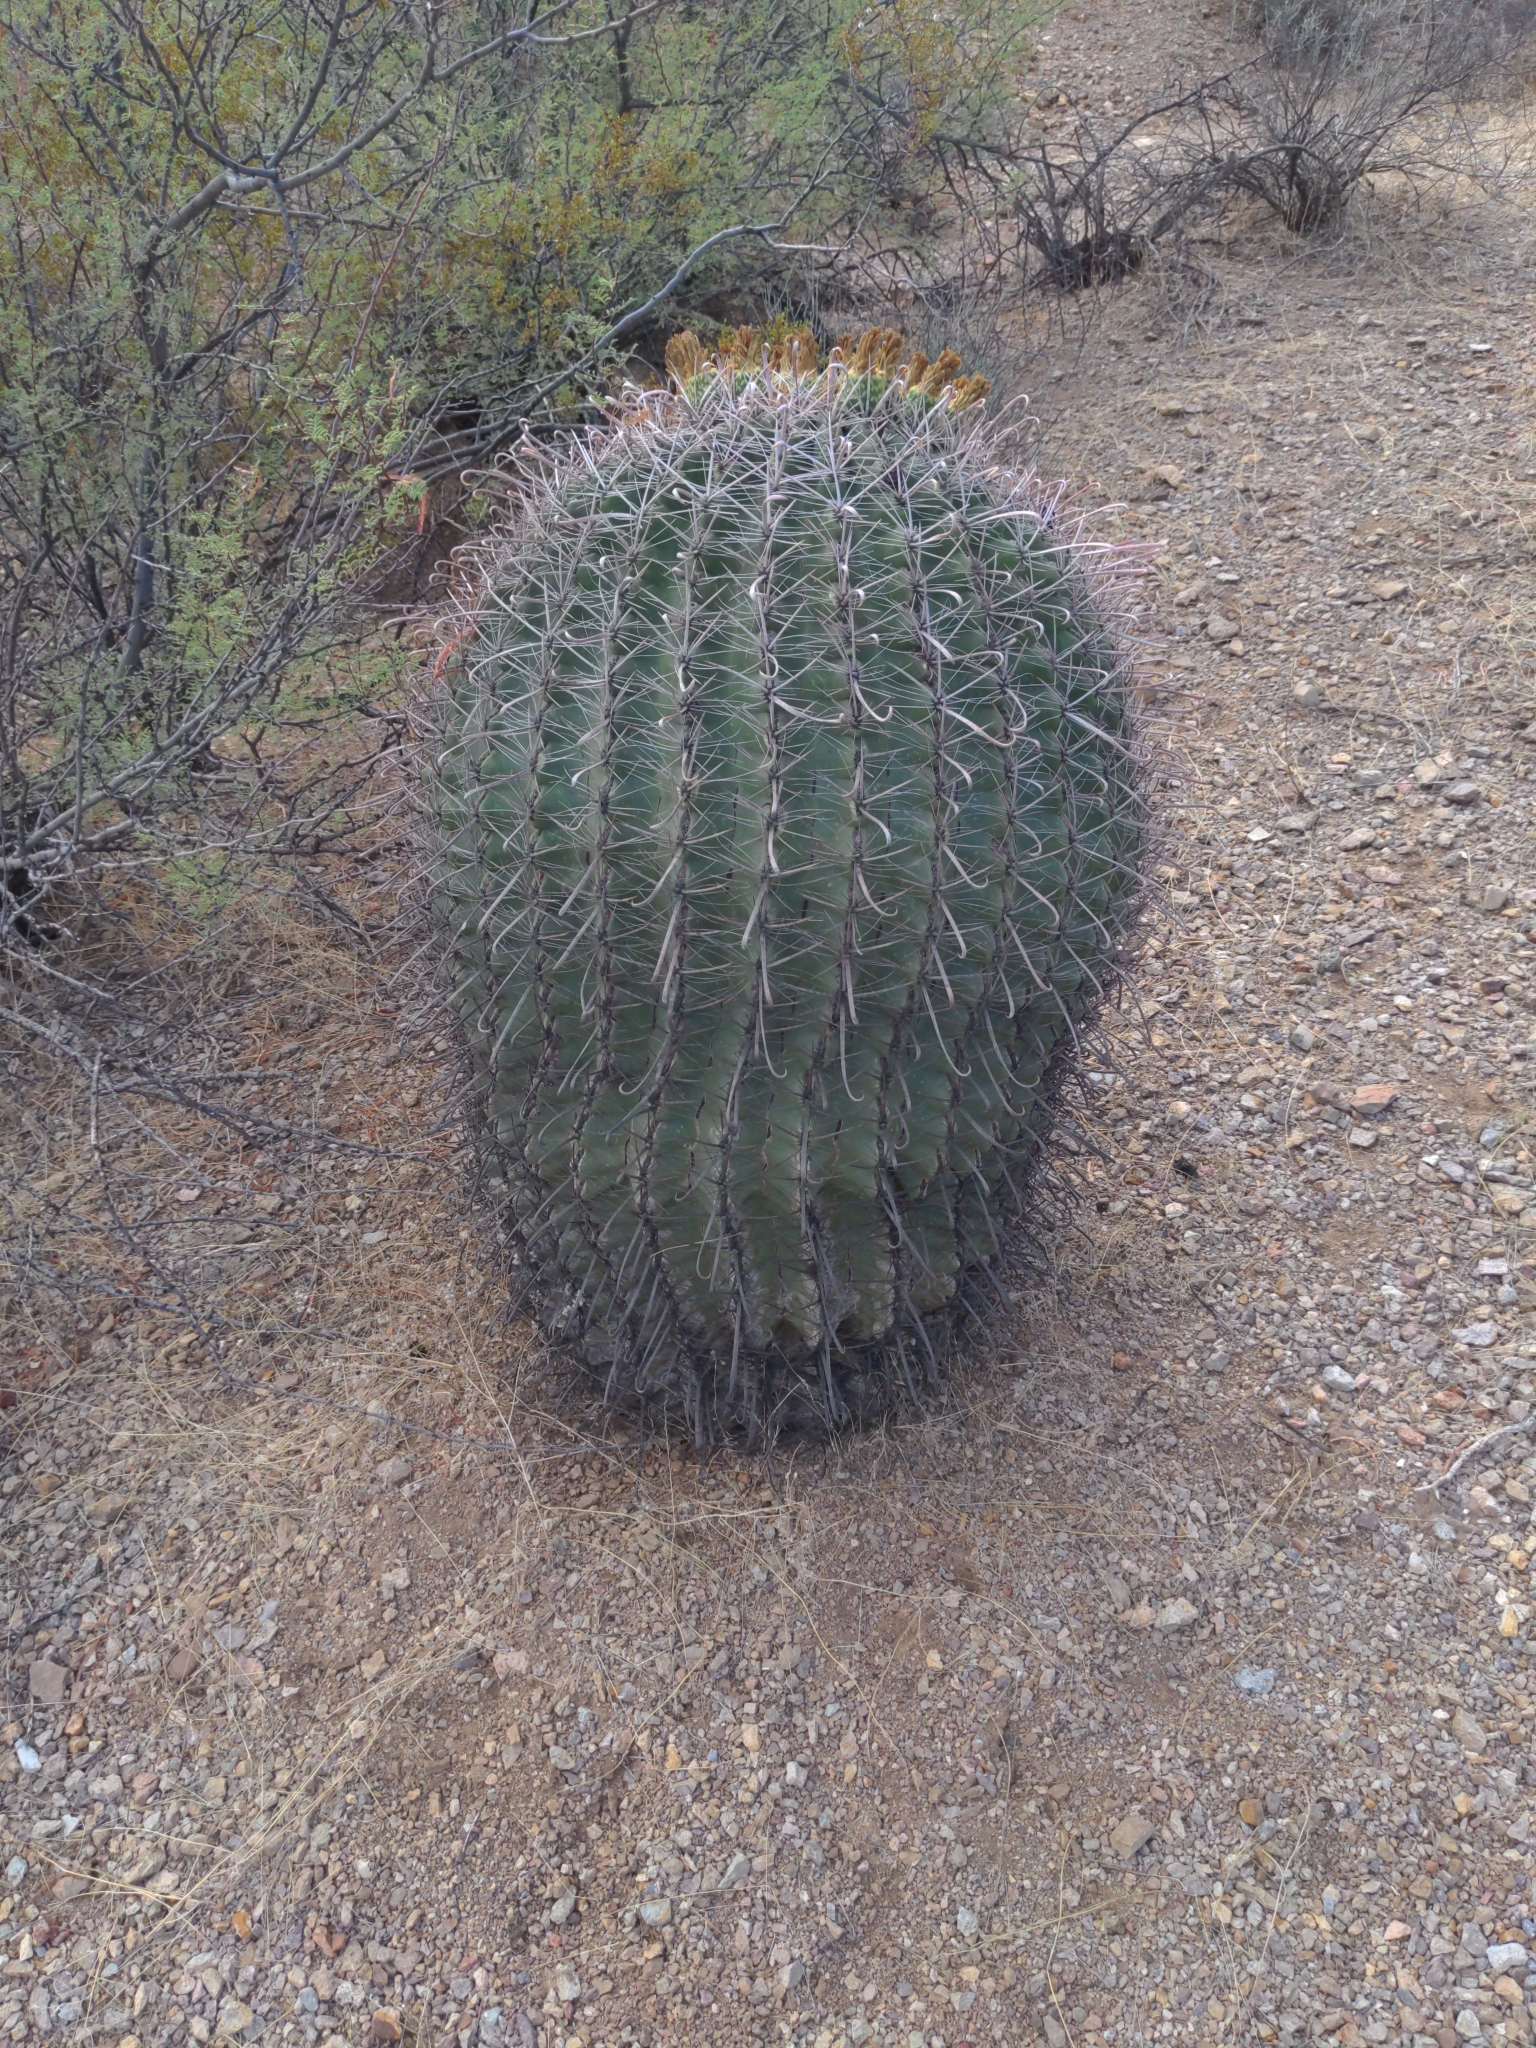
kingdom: Plantae
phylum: Tracheophyta
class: Magnoliopsida
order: Caryophyllales
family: Cactaceae
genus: Ferocactus
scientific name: Ferocactus wislizeni
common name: Candy barrel cactus
